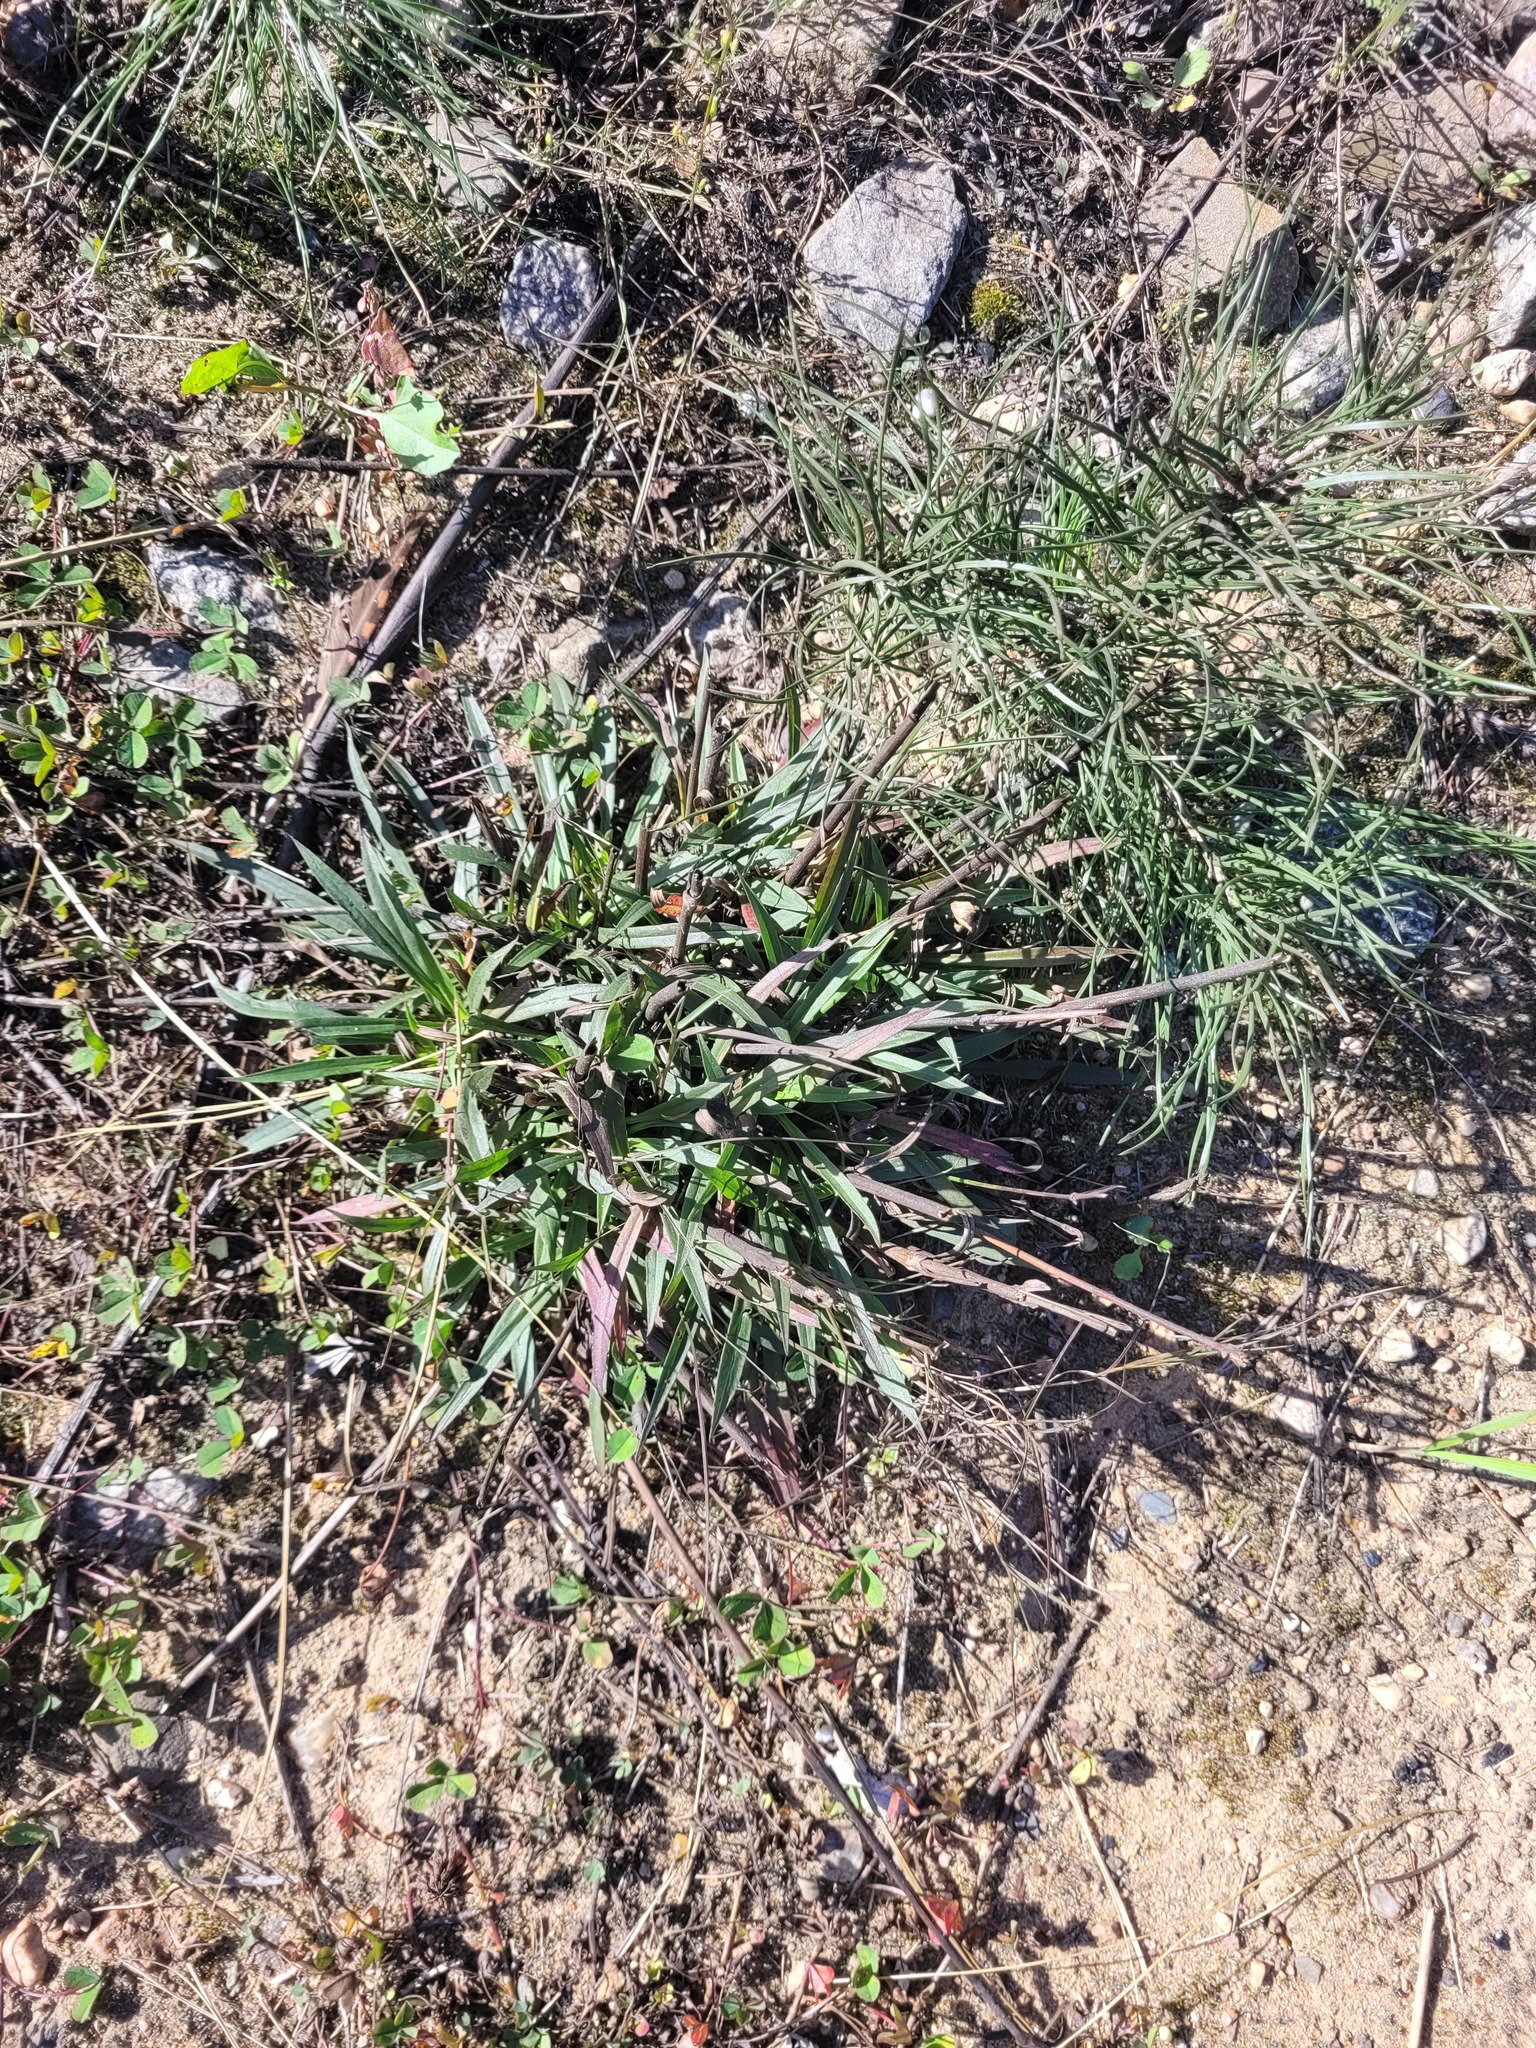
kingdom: Plantae
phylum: Tracheophyta
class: Magnoliopsida
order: Caryophyllales
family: Caryophyllaceae
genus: Viscaria
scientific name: Viscaria vulgaris
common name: Clammy campion
